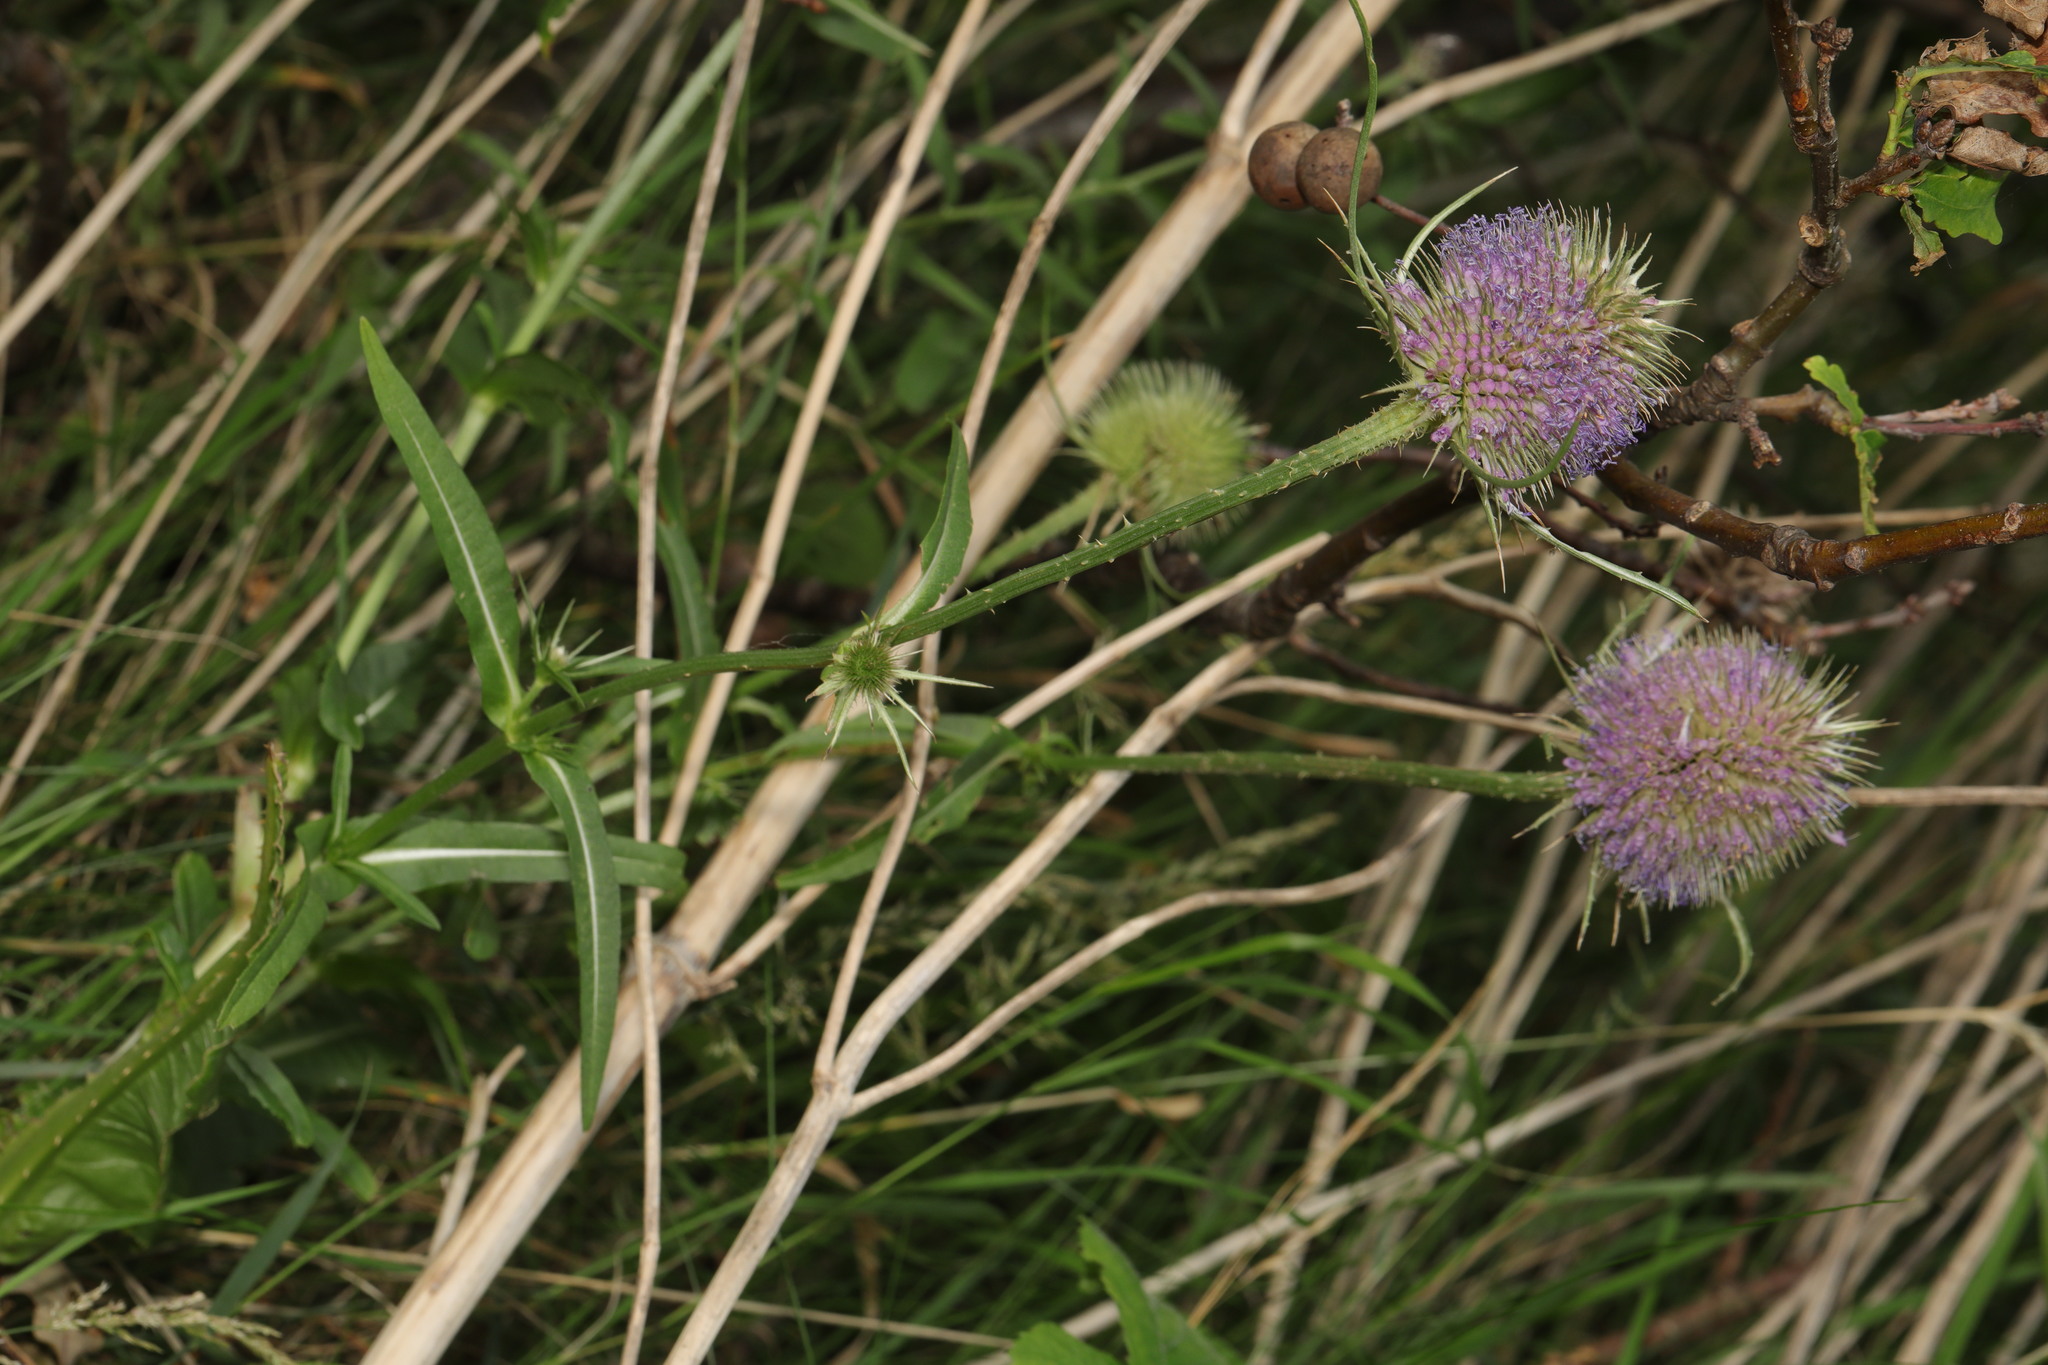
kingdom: Plantae
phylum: Tracheophyta
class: Magnoliopsida
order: Dipsacales
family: Caprifoliaceae
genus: Dipsacus
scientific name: Dipsacus fullonum
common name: Teasel
